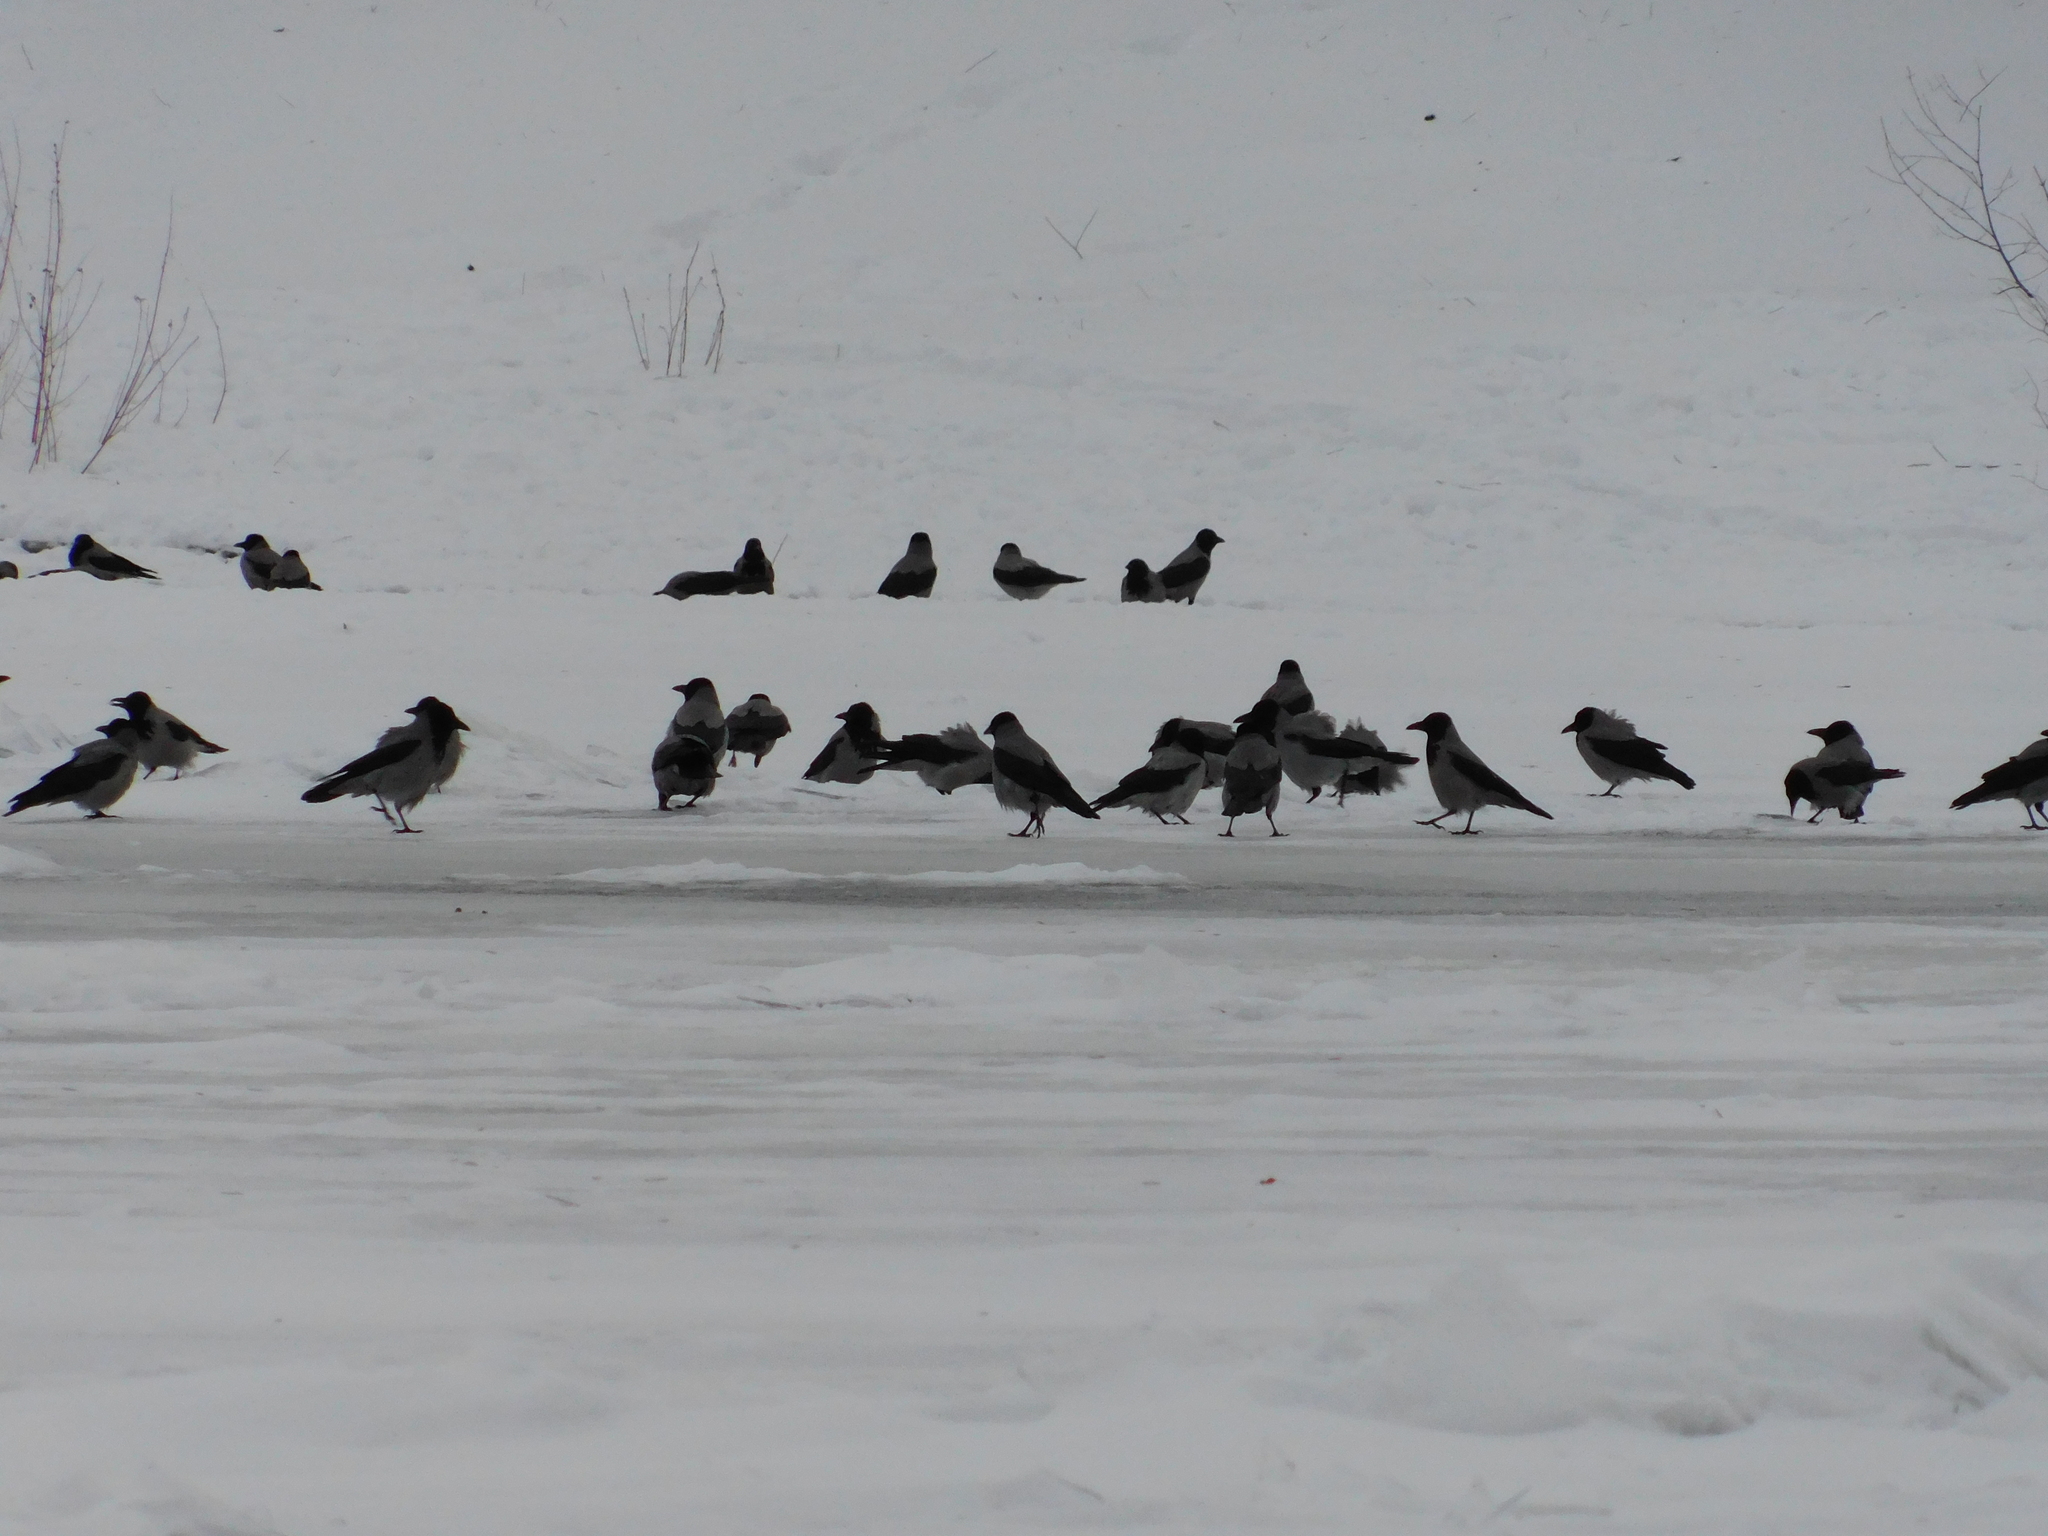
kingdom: Animalia
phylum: Chordata
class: Aves
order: Passeriformes
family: Corvidae
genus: Corvus
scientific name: Corvus cornix
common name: Hooded crow
